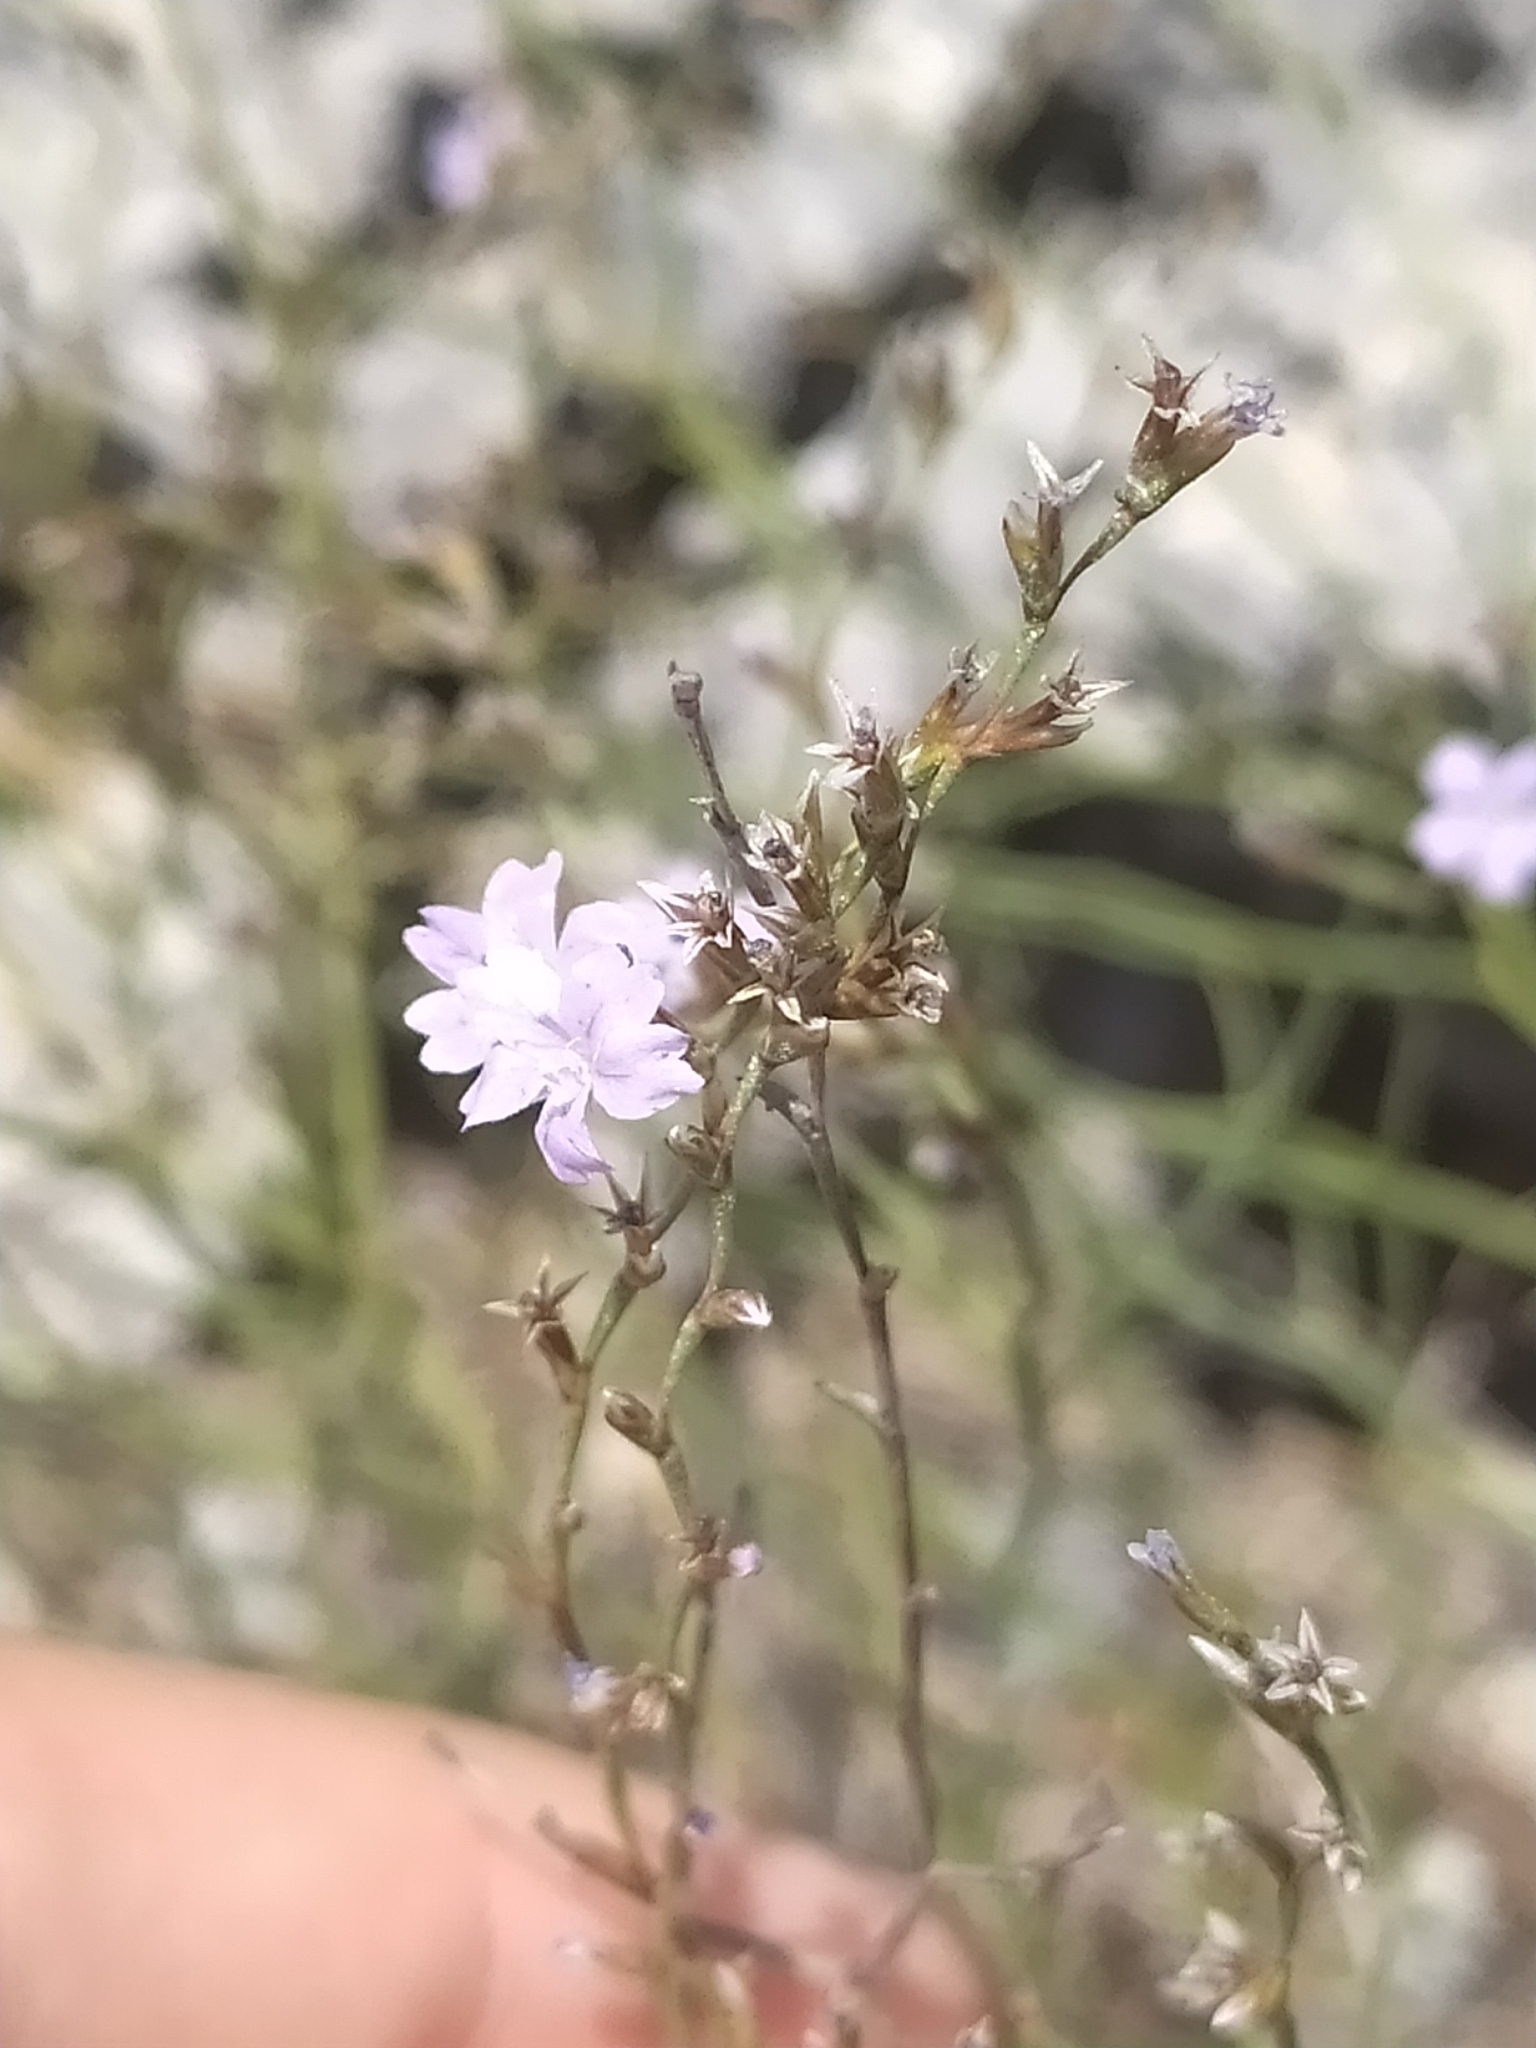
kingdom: Plantae
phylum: Tracheophyta
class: Magnoliopsida
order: Caryophyllales
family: Plumbaginaceae
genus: Limonium
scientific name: Limonium virgatum
